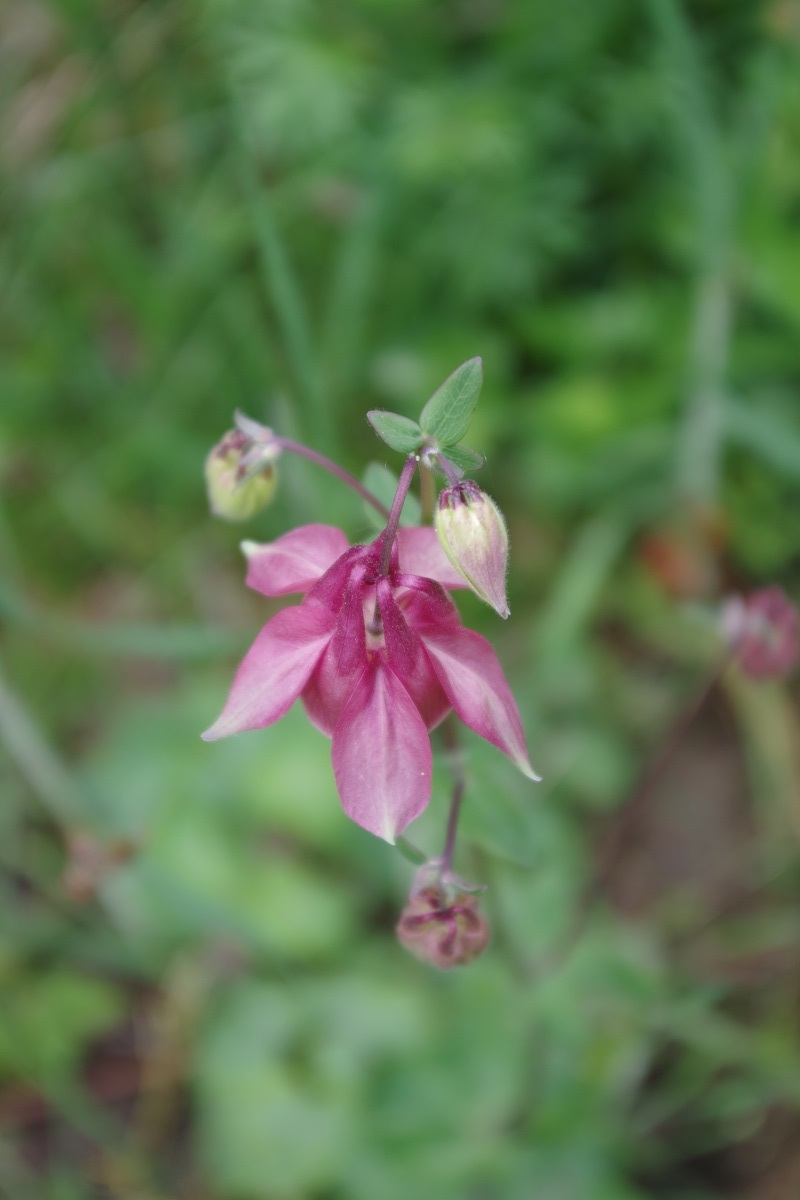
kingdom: Plantae
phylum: Tracheophyta
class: Magnoliopsida
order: Ranunculales
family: Ranunculaceae
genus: Aquilegia
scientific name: Aquilegia vulgaris
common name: Columbine
